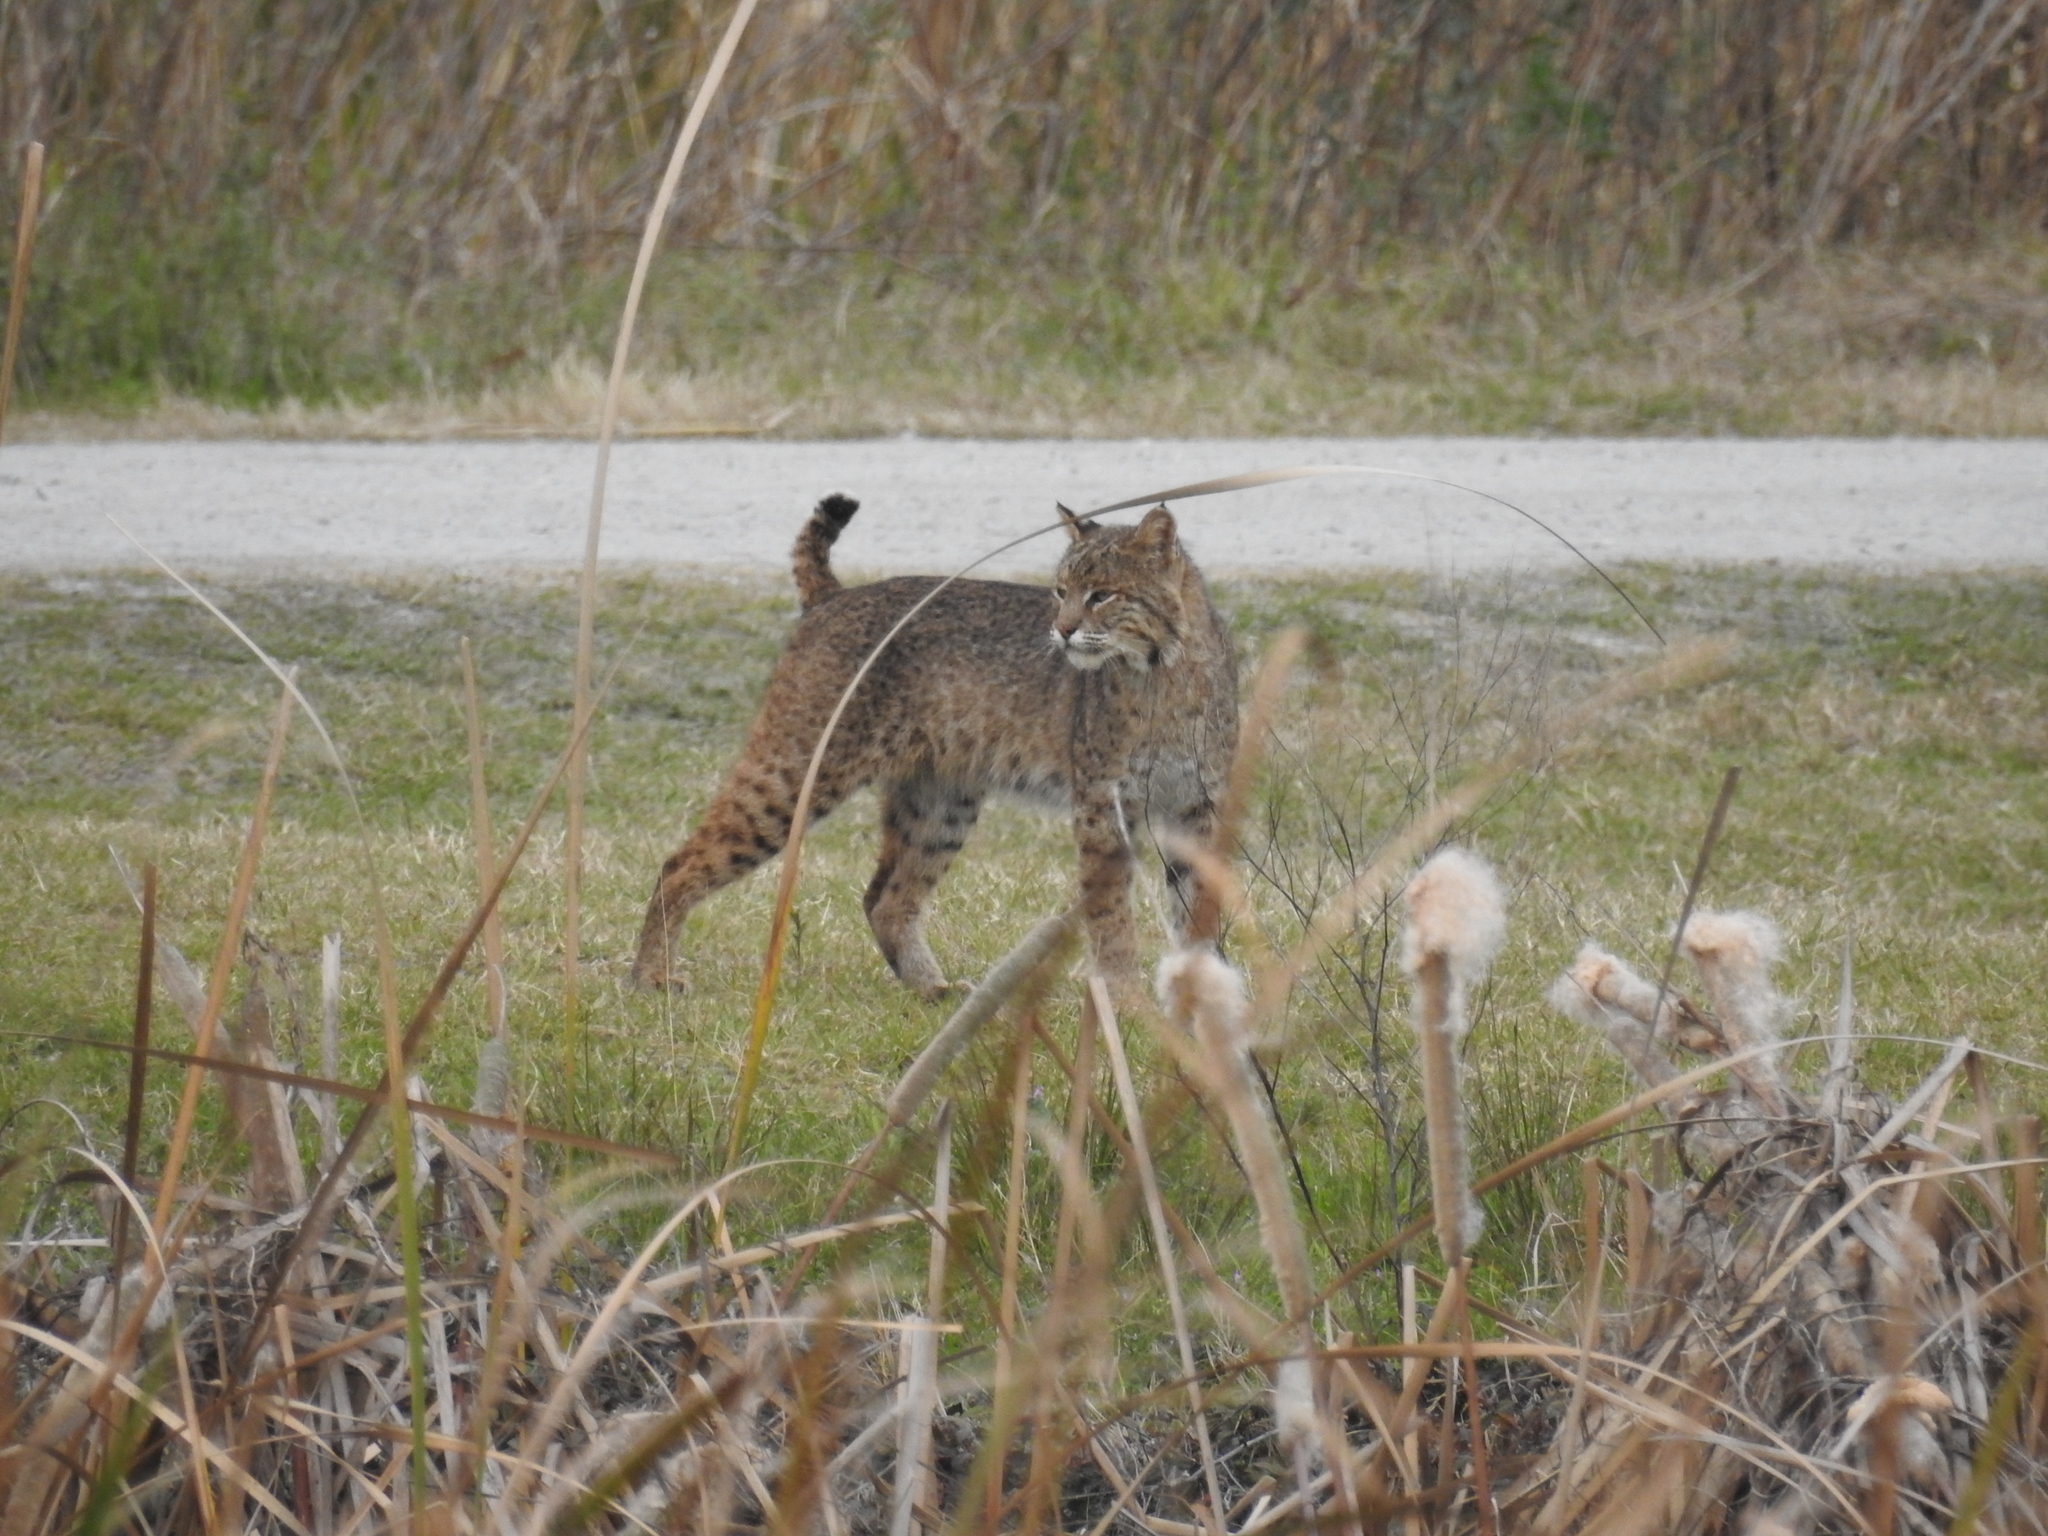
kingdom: Animalia
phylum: Chordata
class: Mammalia
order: Carnivora
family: Felidae
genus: Lynx
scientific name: Lynx rufus
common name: Bobcat
